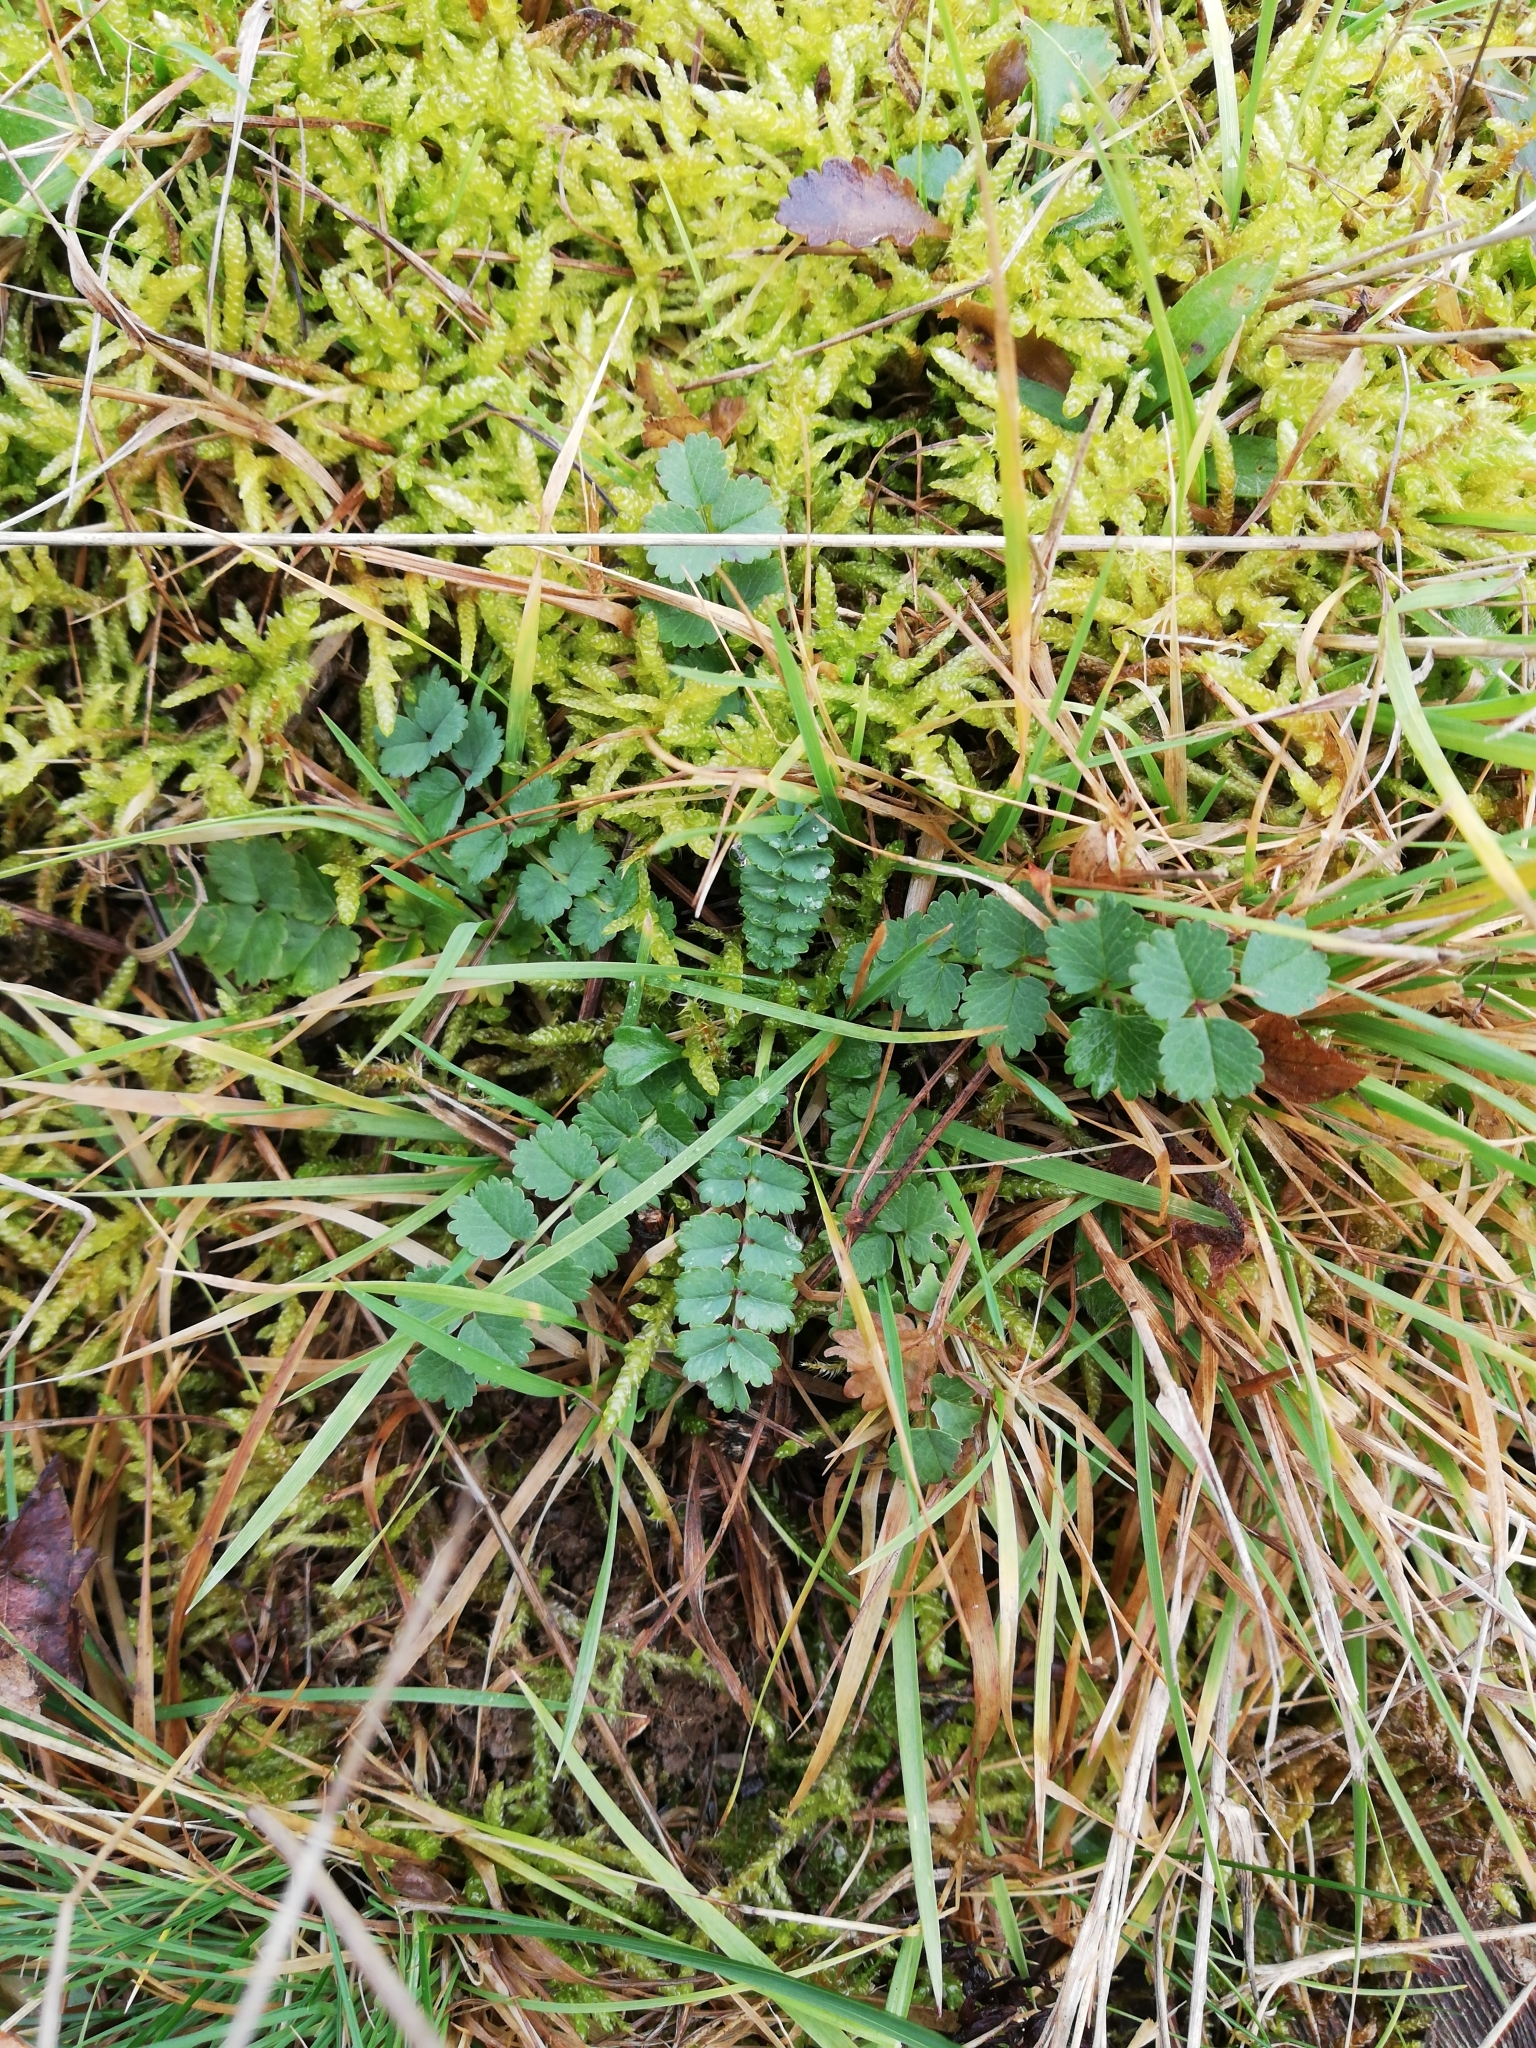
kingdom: Plantae
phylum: Tracheophyta
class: Magnoliopsida
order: Rosales
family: Rosaceae
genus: Poterium
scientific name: Poterium sanguisorba
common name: Salad burnet
